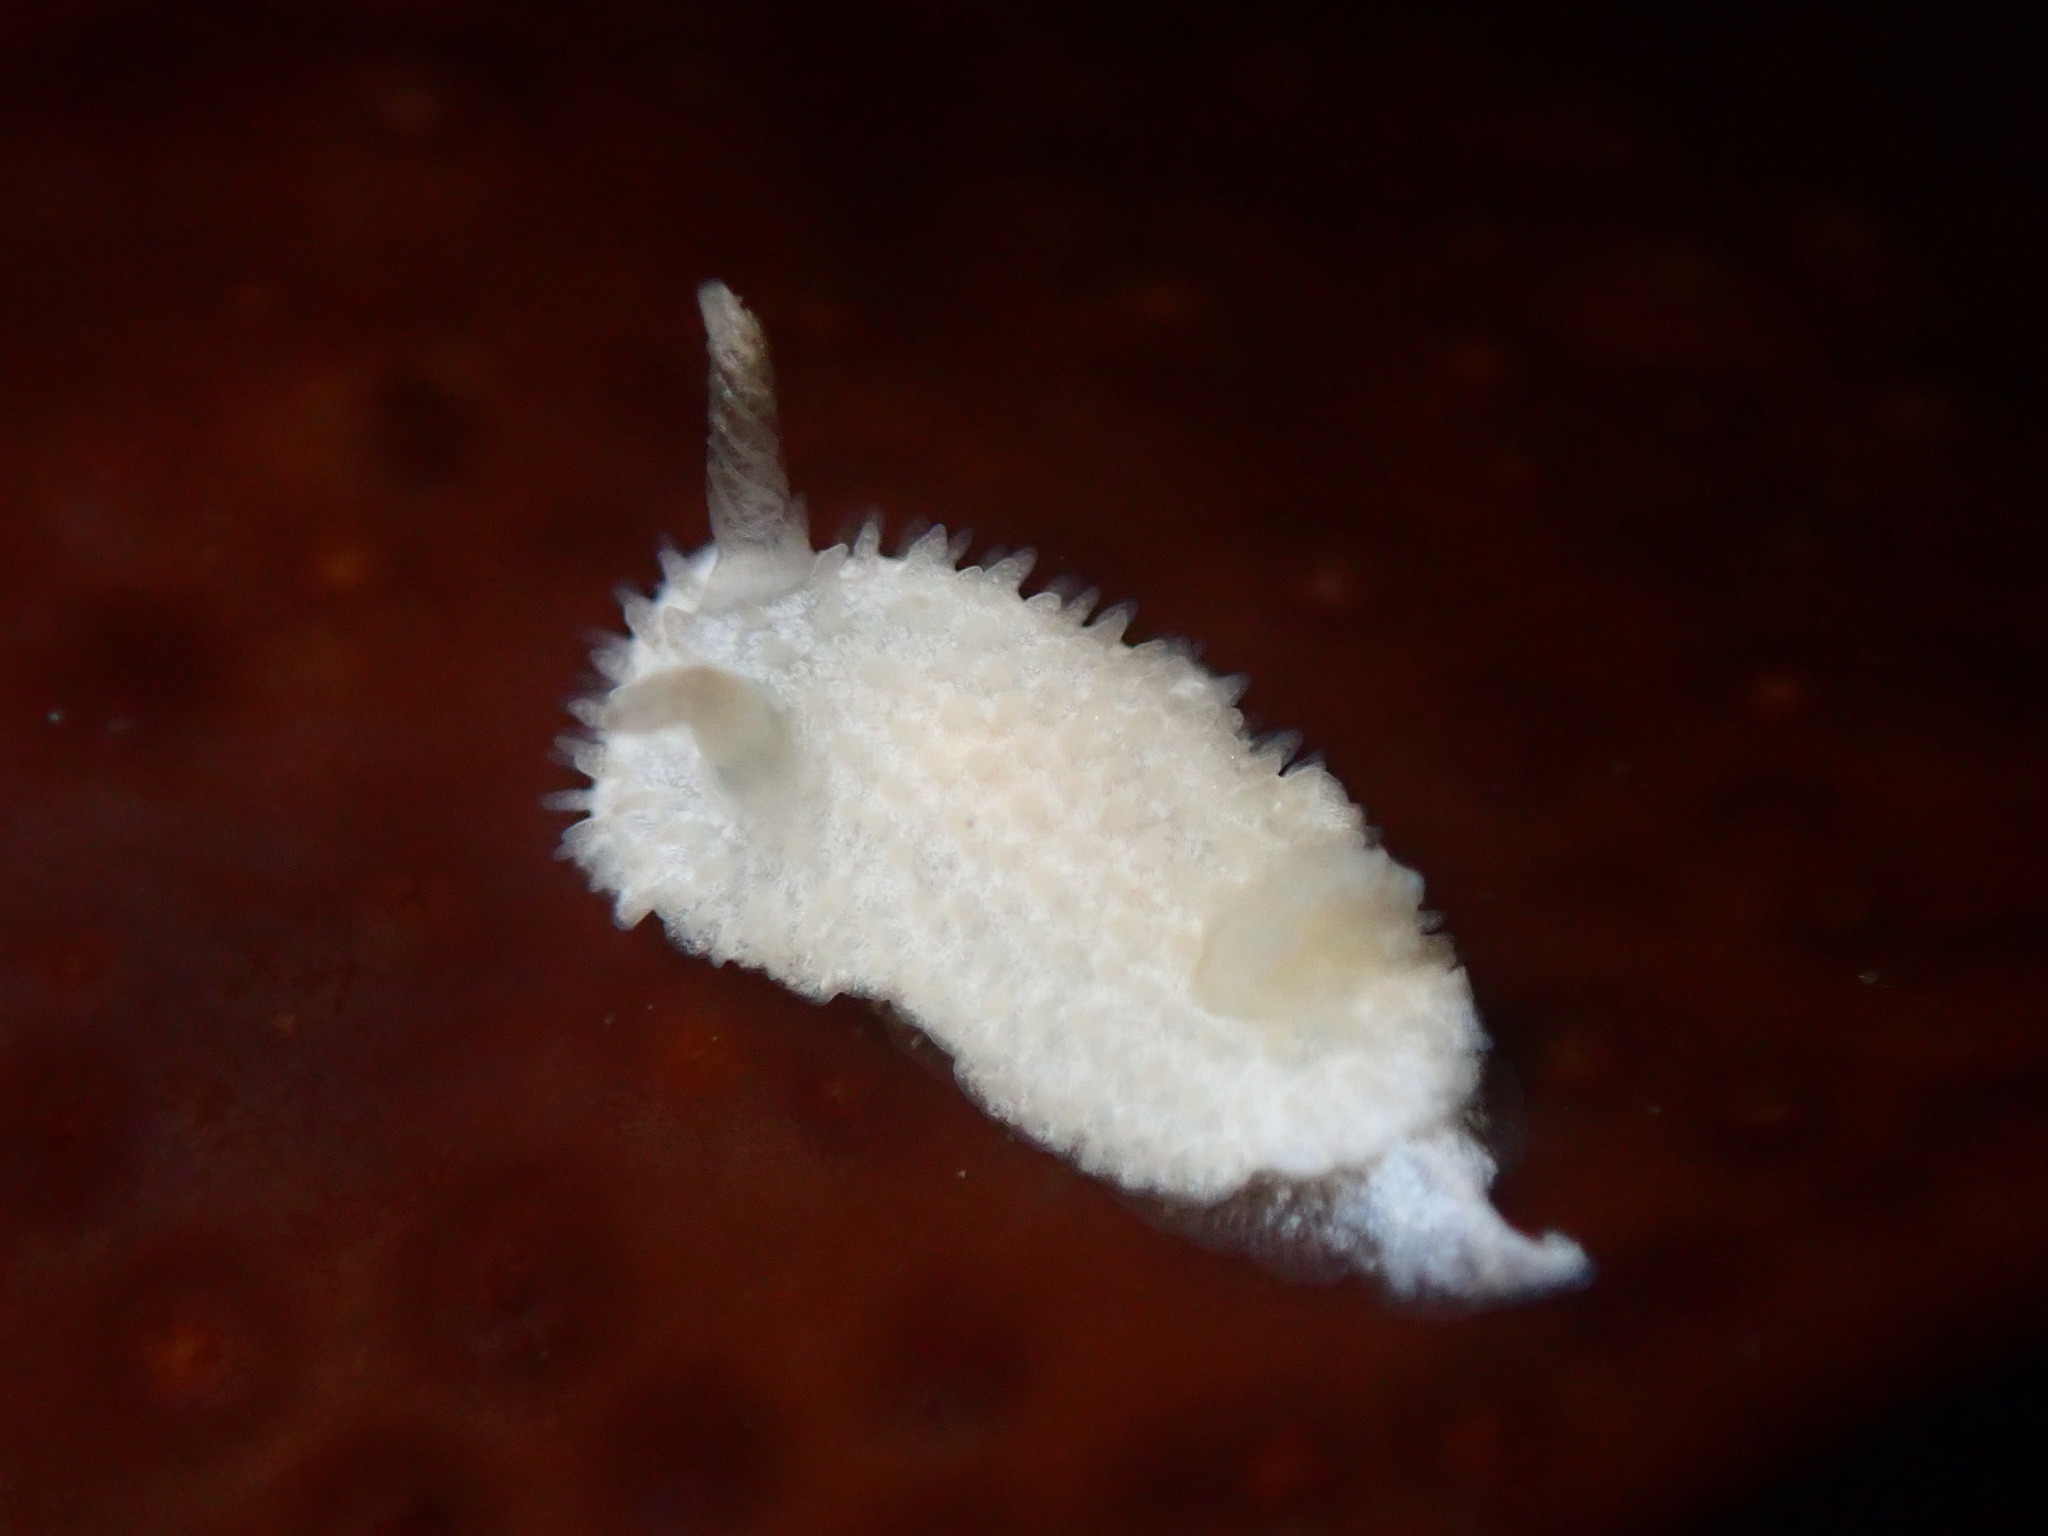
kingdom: Animalia
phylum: Mollusca
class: Gastropoda
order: Nudibranchia
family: Calycidorididae
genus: Diaphorodoris
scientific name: Diaphorodoris lirulatocauda
